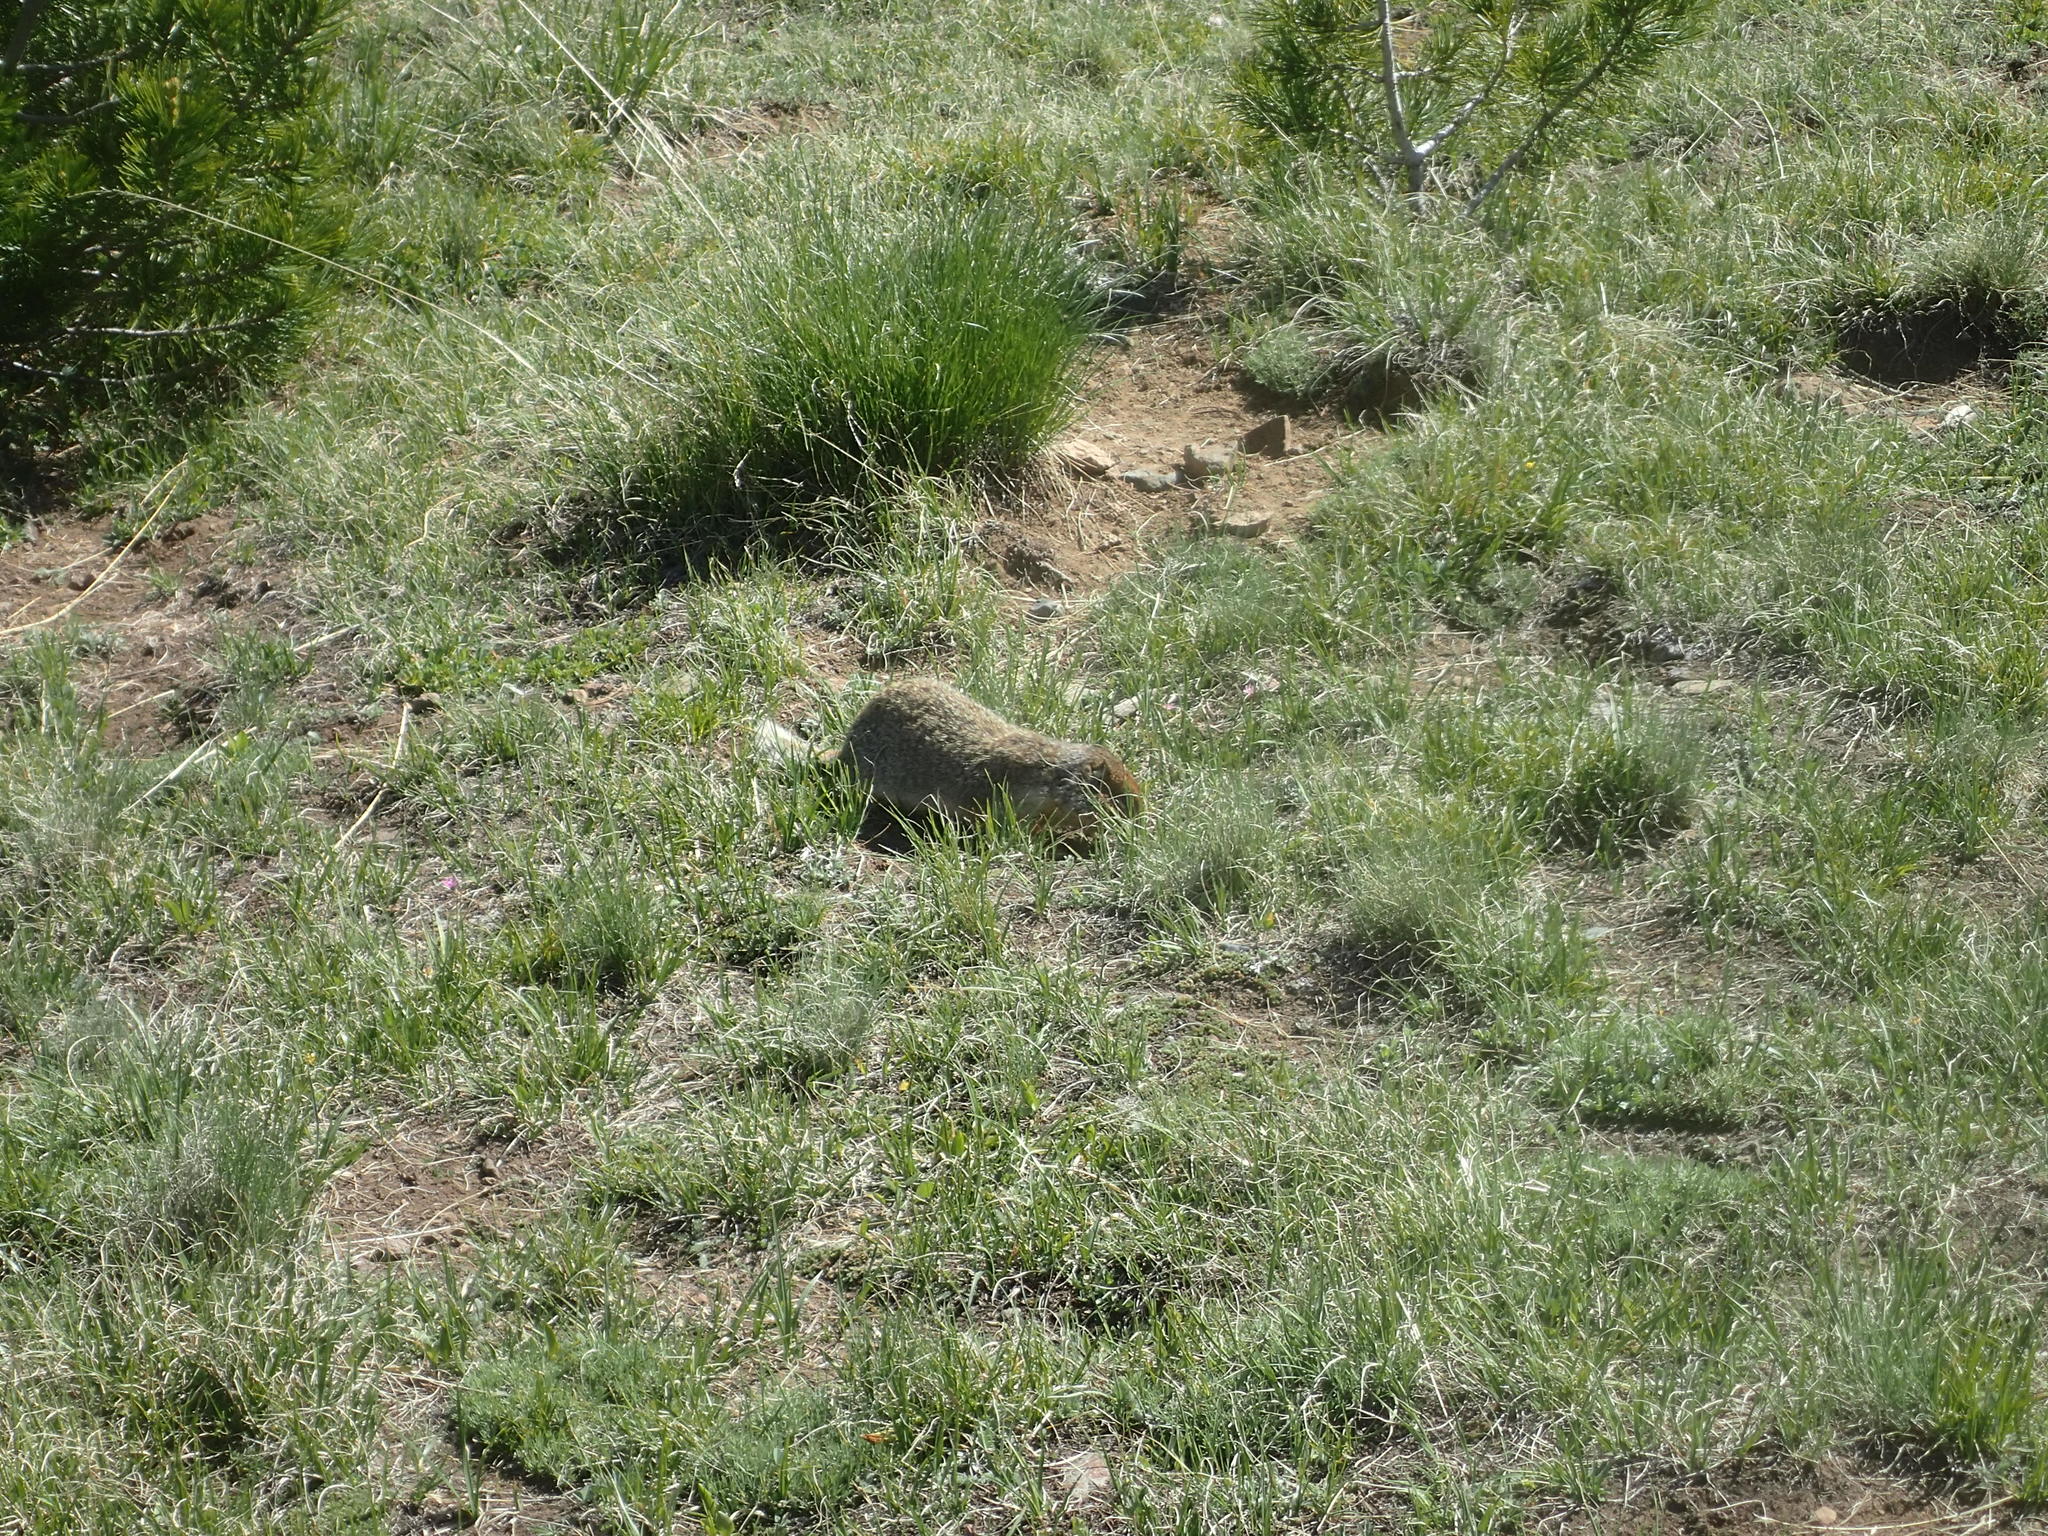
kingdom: Animalia
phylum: Chordata
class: Mammalia
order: Rodentia
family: Sciuridae
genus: Urocitellus
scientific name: Urocitellus columbianus
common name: Columbian ground squirrel
